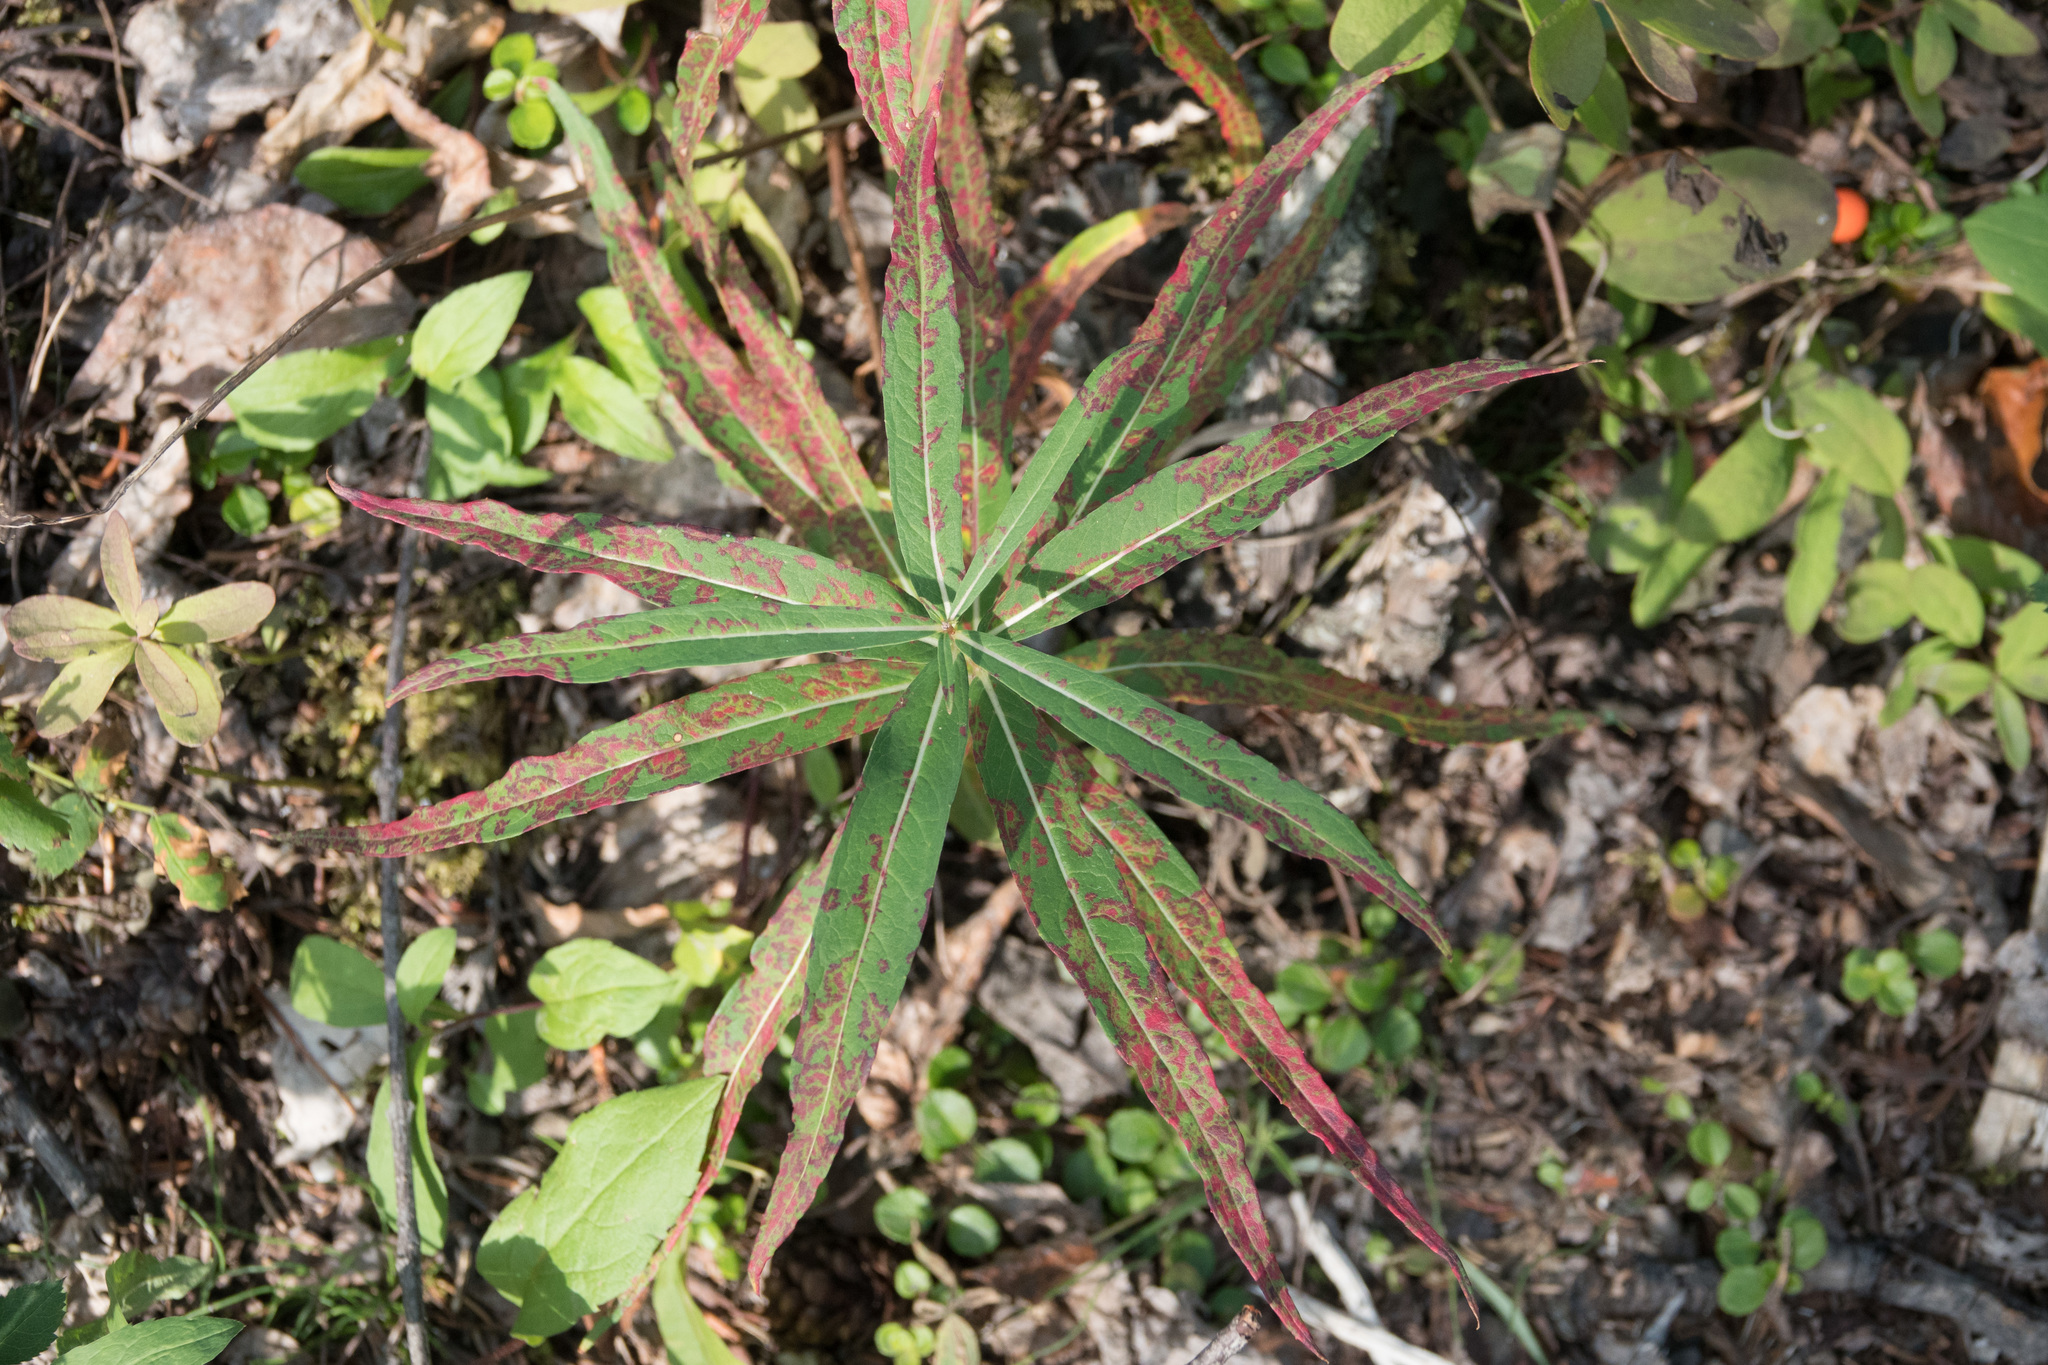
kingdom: Plantae
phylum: Tracheophyta
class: Magnoliopsida
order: Myrtales
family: Onagraceae
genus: Chamaenerion
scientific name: Chamaenerion angustifolium
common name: Fireweed
